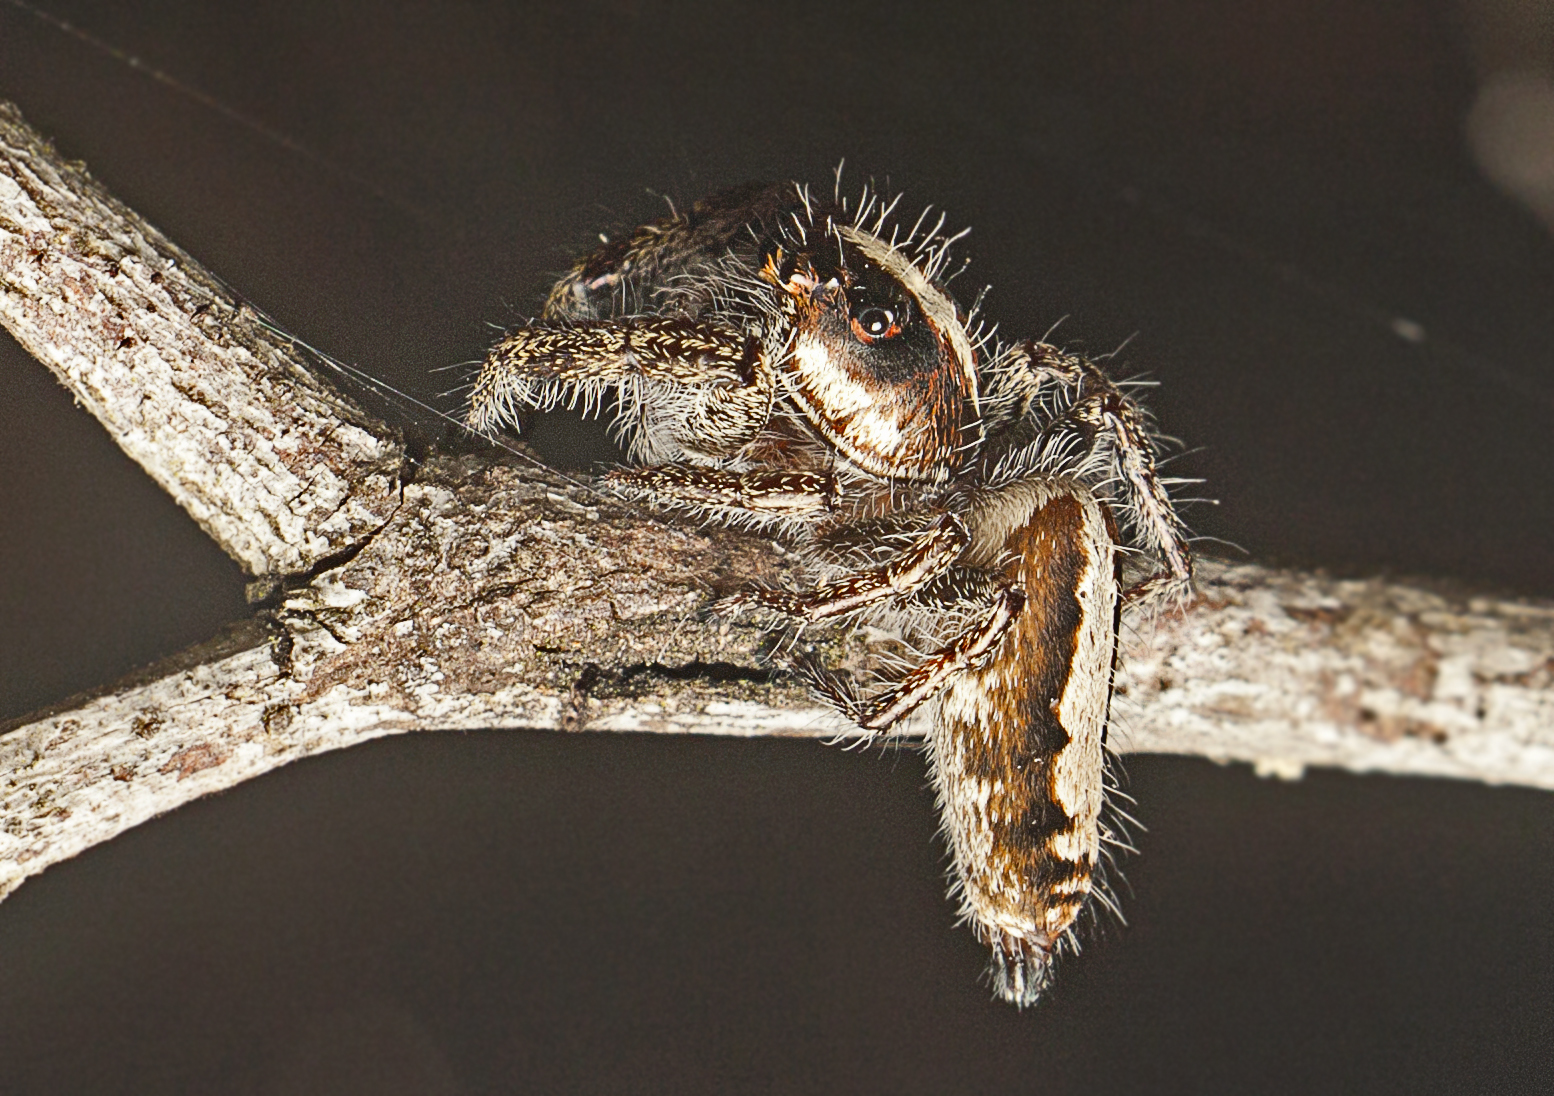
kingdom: Animalia
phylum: Arthropoda
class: Arachnida
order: Araneae
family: Salticidae
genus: Sandalodes
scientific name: Sandalodes bipenicillatus
